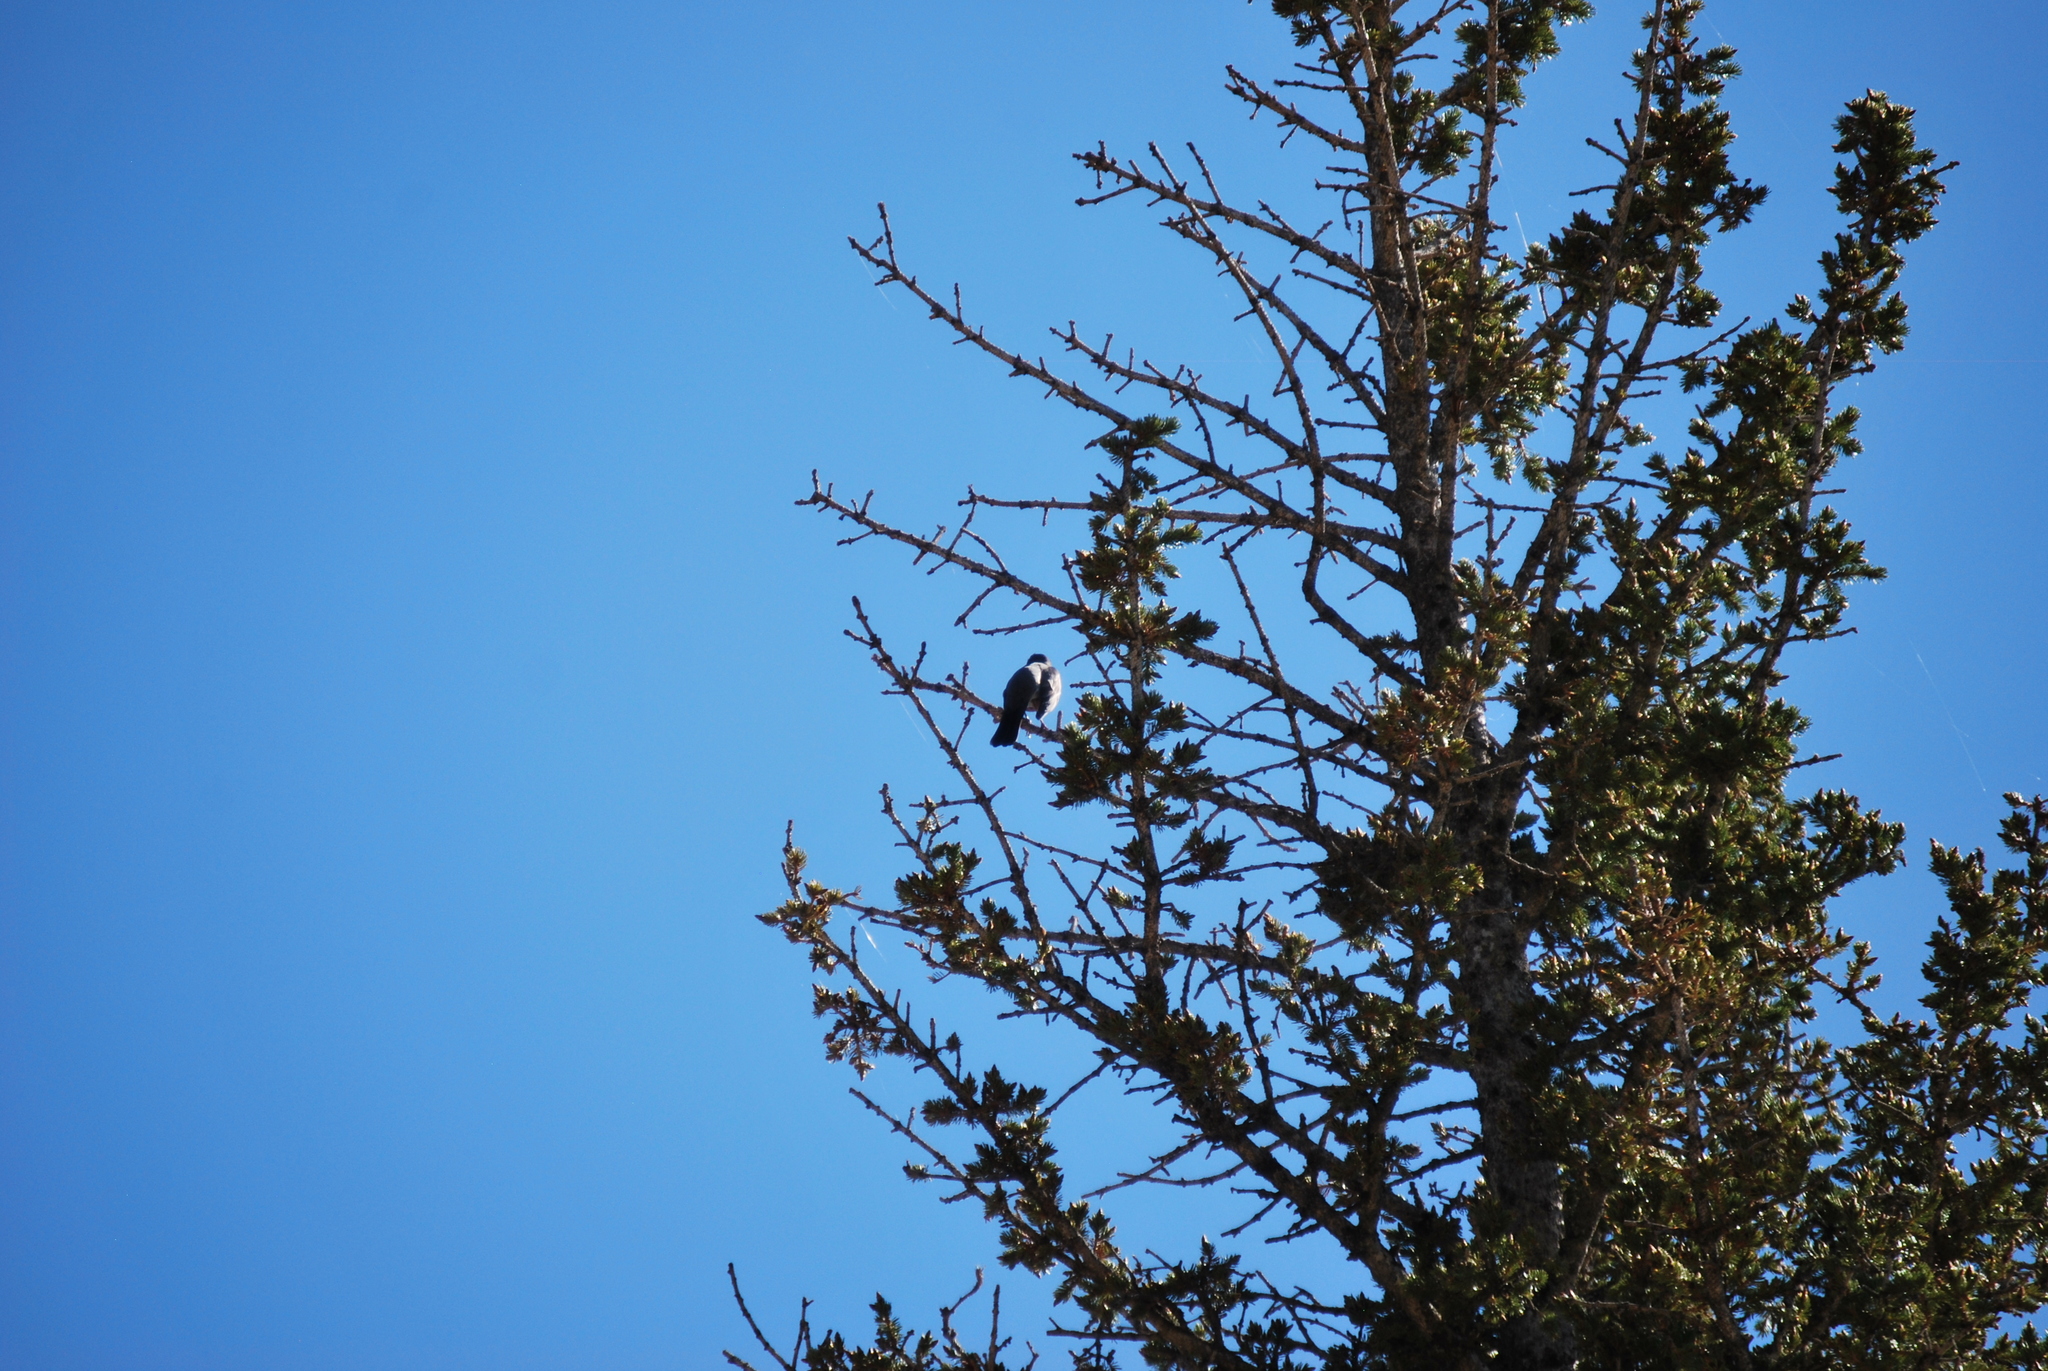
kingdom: Animalia
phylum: Chordata
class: Aves
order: Passeriformes
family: Turdidae
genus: Turdus
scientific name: Turdus migratorius
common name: American robin
